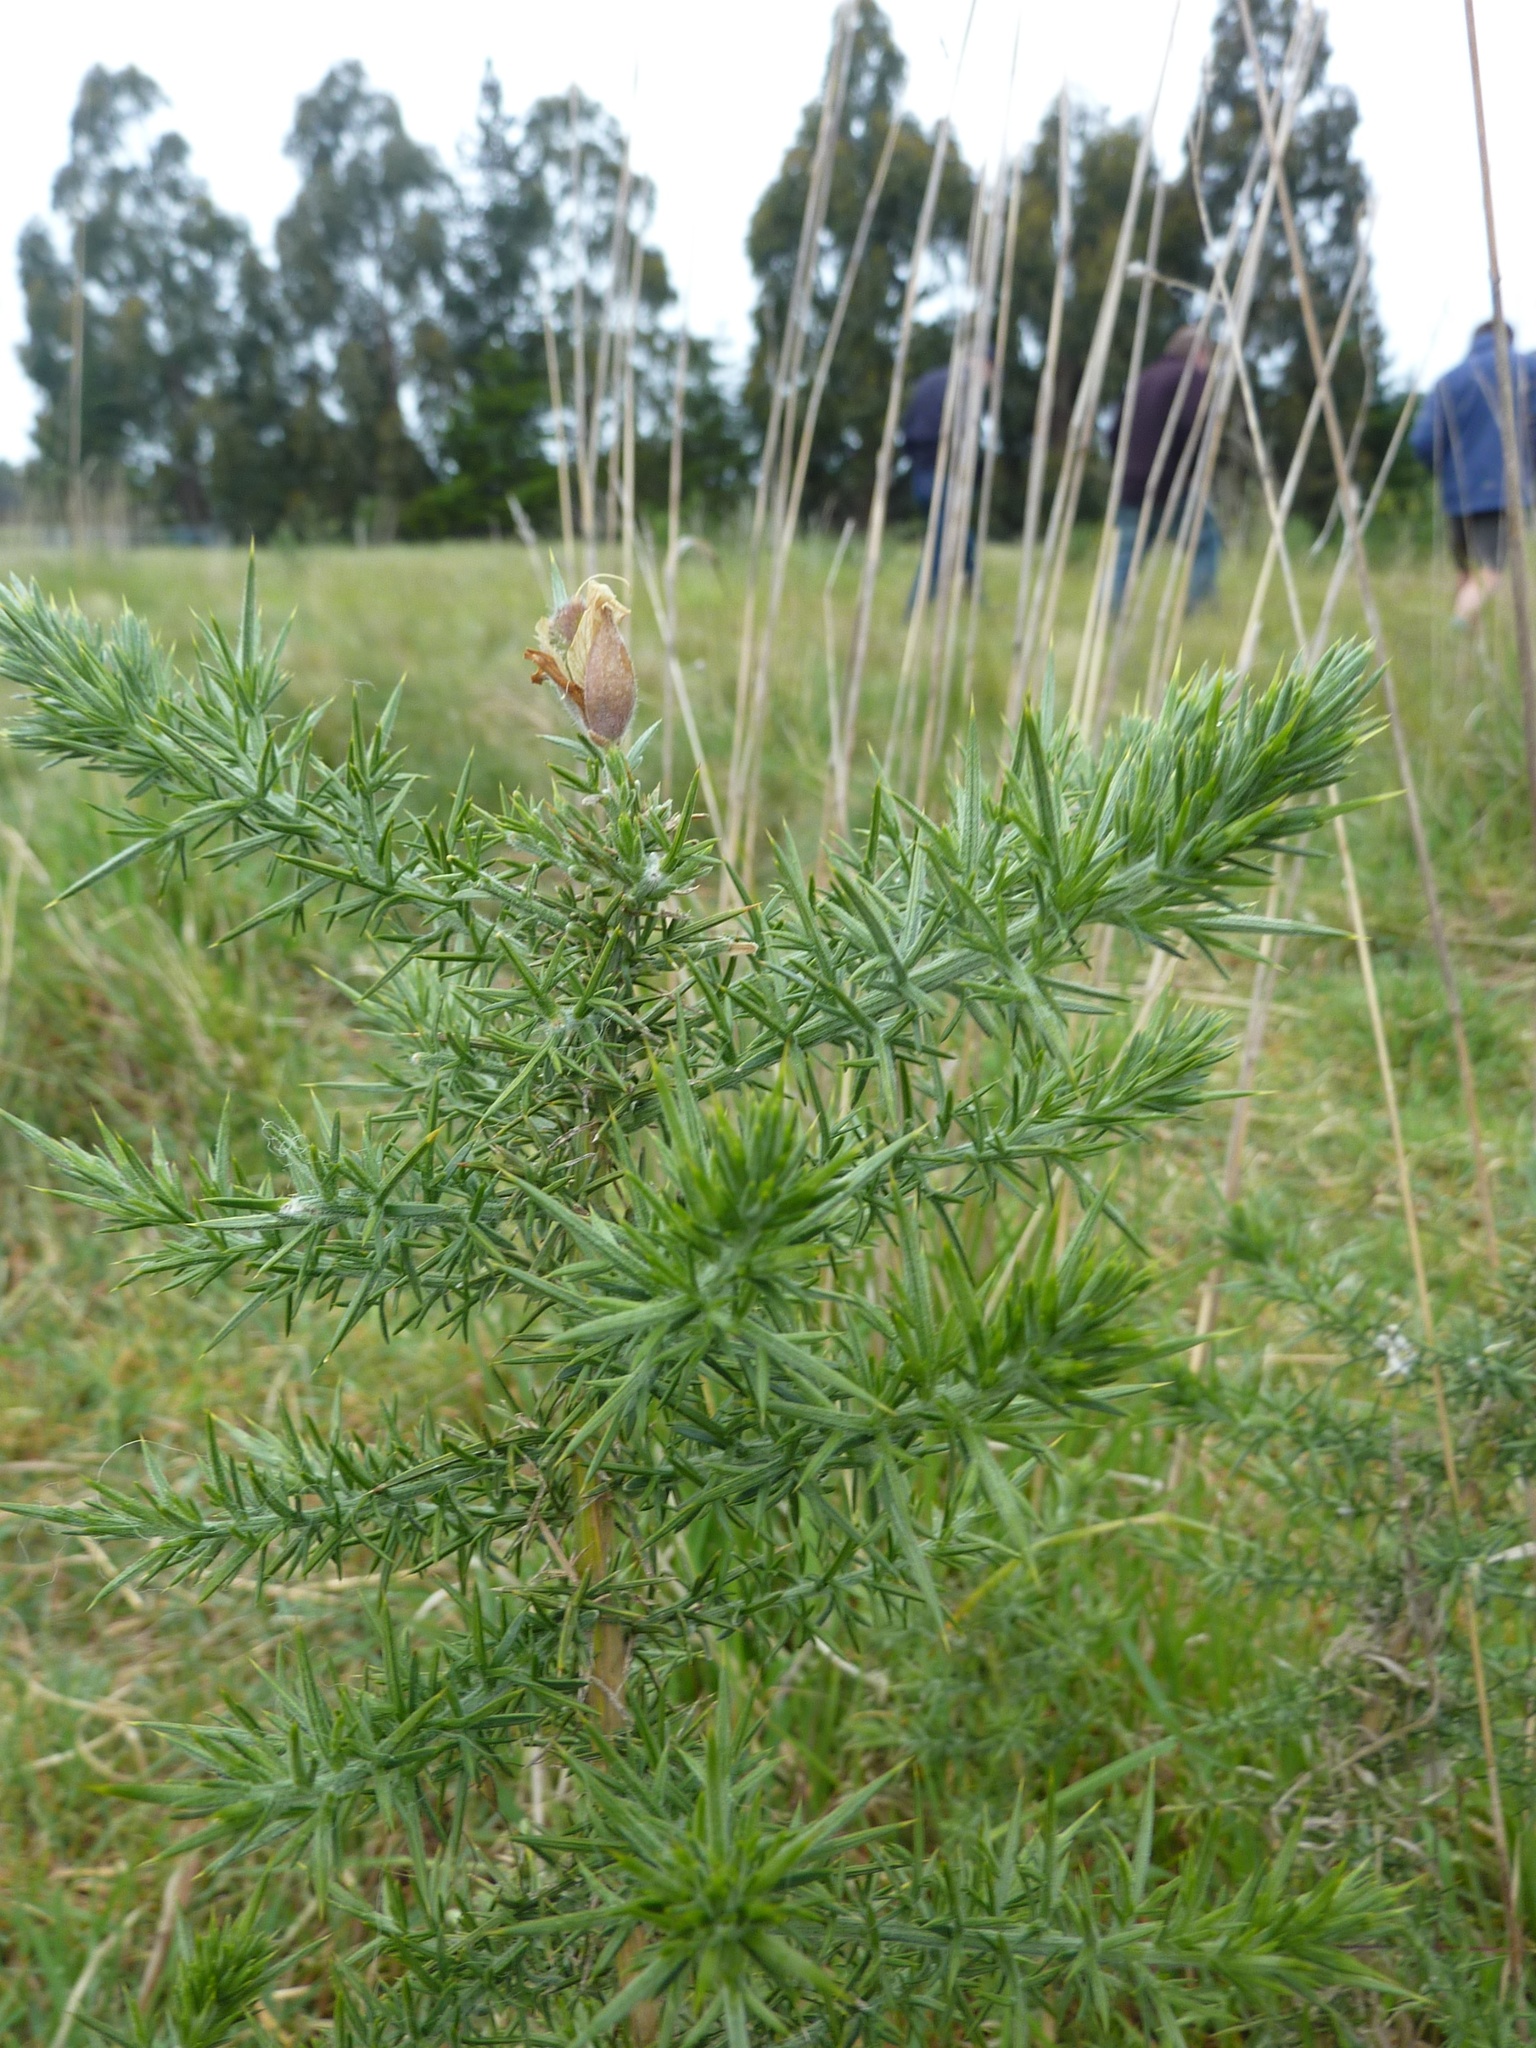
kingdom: Plantae
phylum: Tracheophyta
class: Magnoliopsida
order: Fabales
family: Fabaceae
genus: Ulex
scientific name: Ulex europaeus
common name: Common gorse
